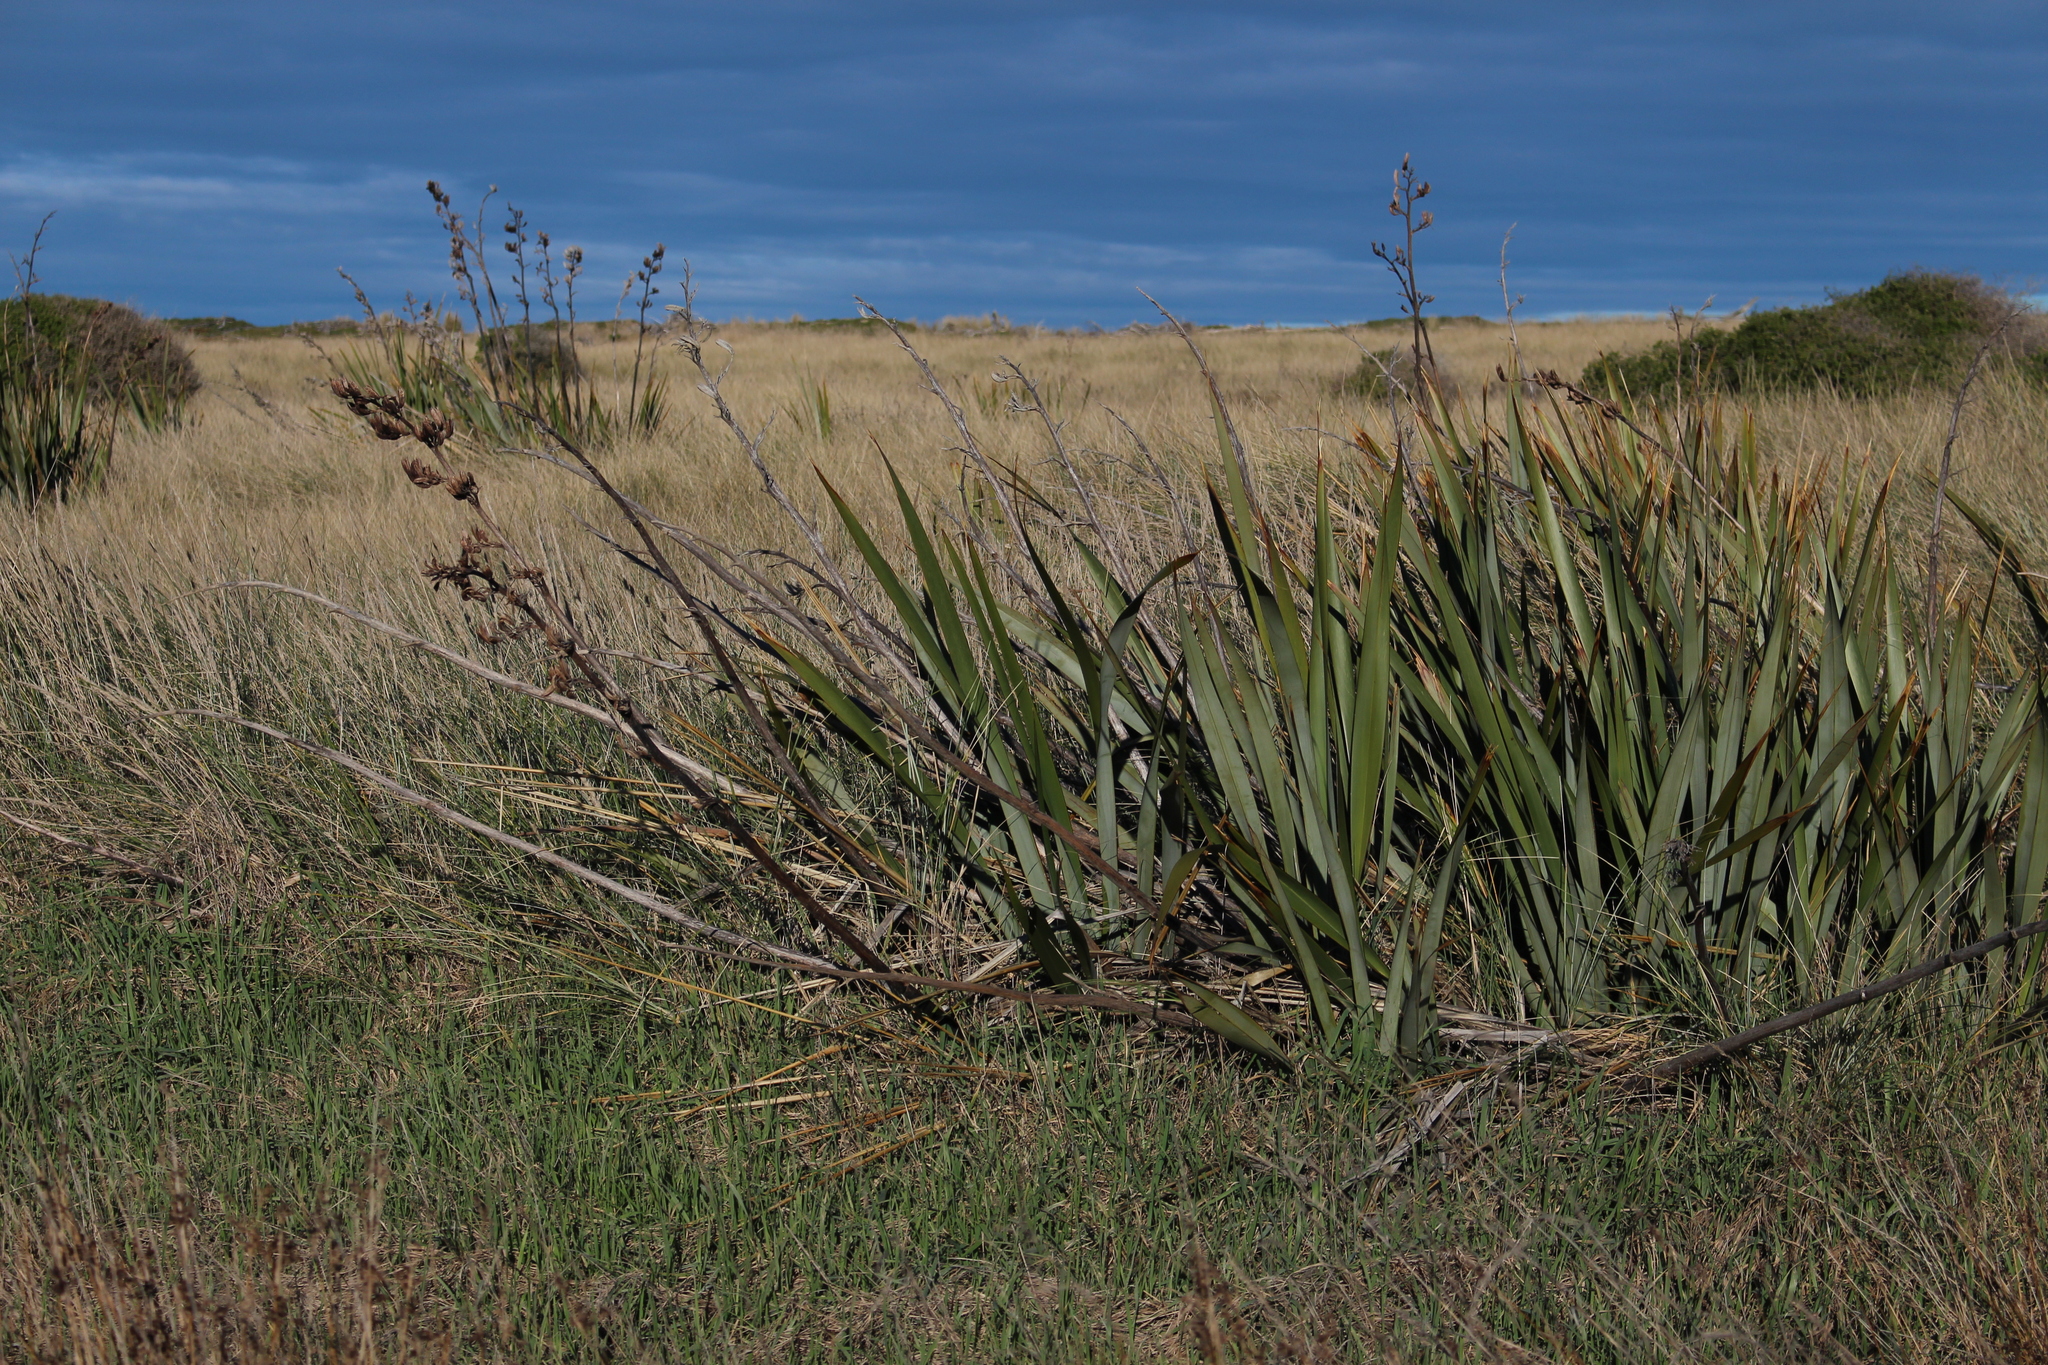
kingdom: Plantae
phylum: Tracheophyta
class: Liliopsida
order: Asparagales
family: Asphodelaceae
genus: Phormium
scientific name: Phormium tenax
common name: New zealand flax
